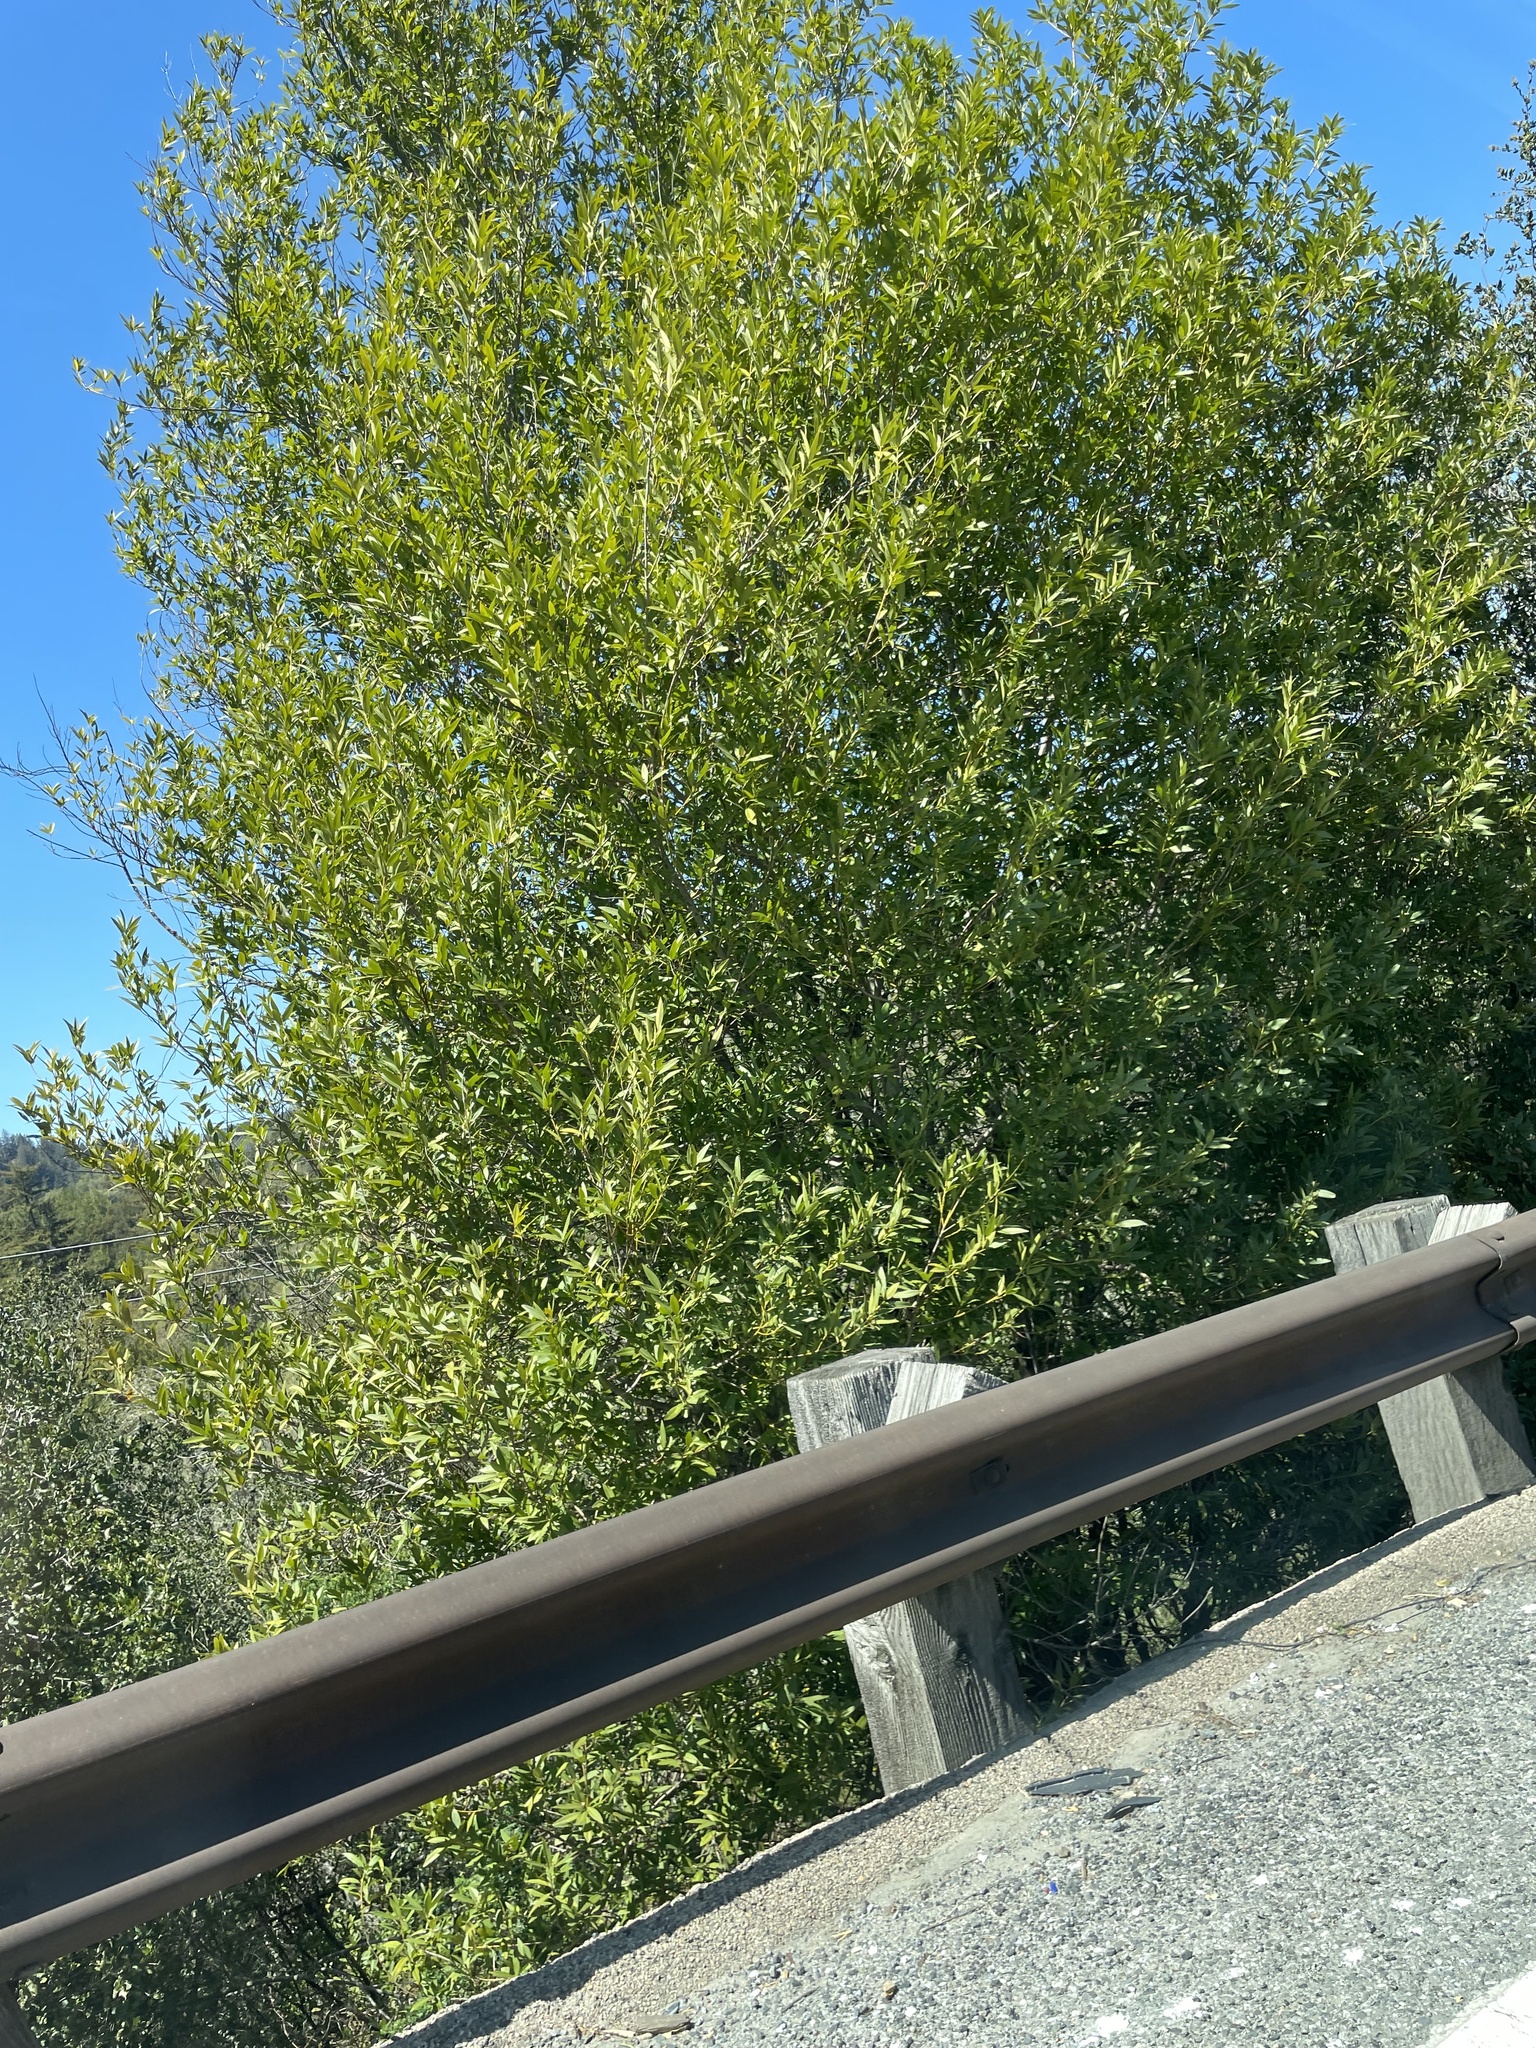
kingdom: Plantae
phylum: Tracheophyta
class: Magnoliopsida
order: Laurales
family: Lauraceae
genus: Umbellularia
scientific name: Umbellularia californica
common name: California bay
